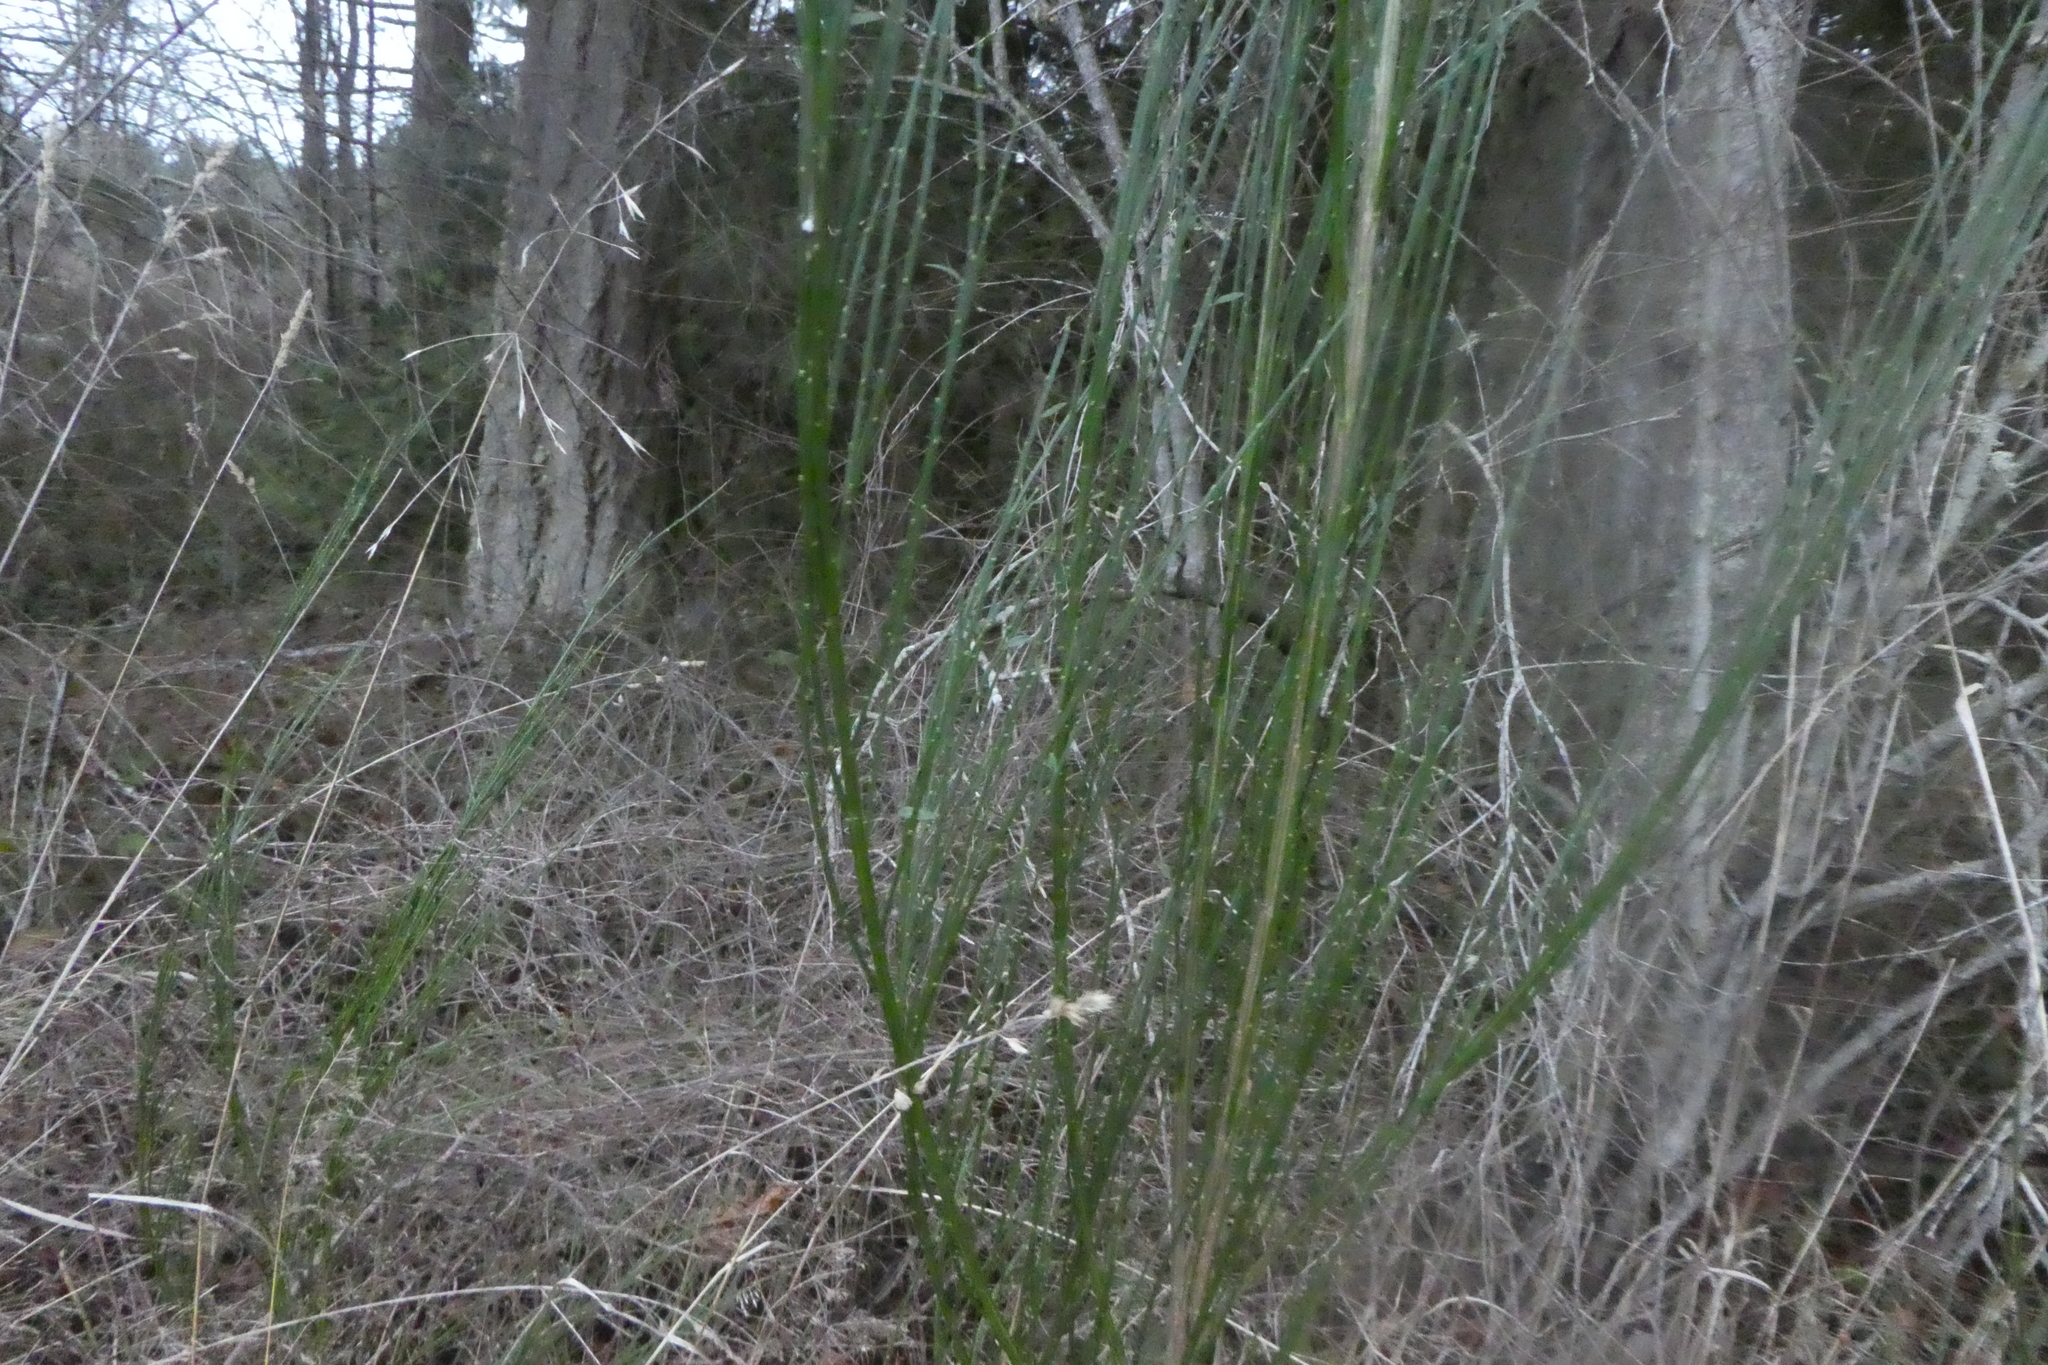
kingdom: Plantae
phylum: Tracheophyta
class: Magnoliopsida
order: Fabales
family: Fabaceae
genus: Cytisus
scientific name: Cytisus scoparius
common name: Scotch broom
